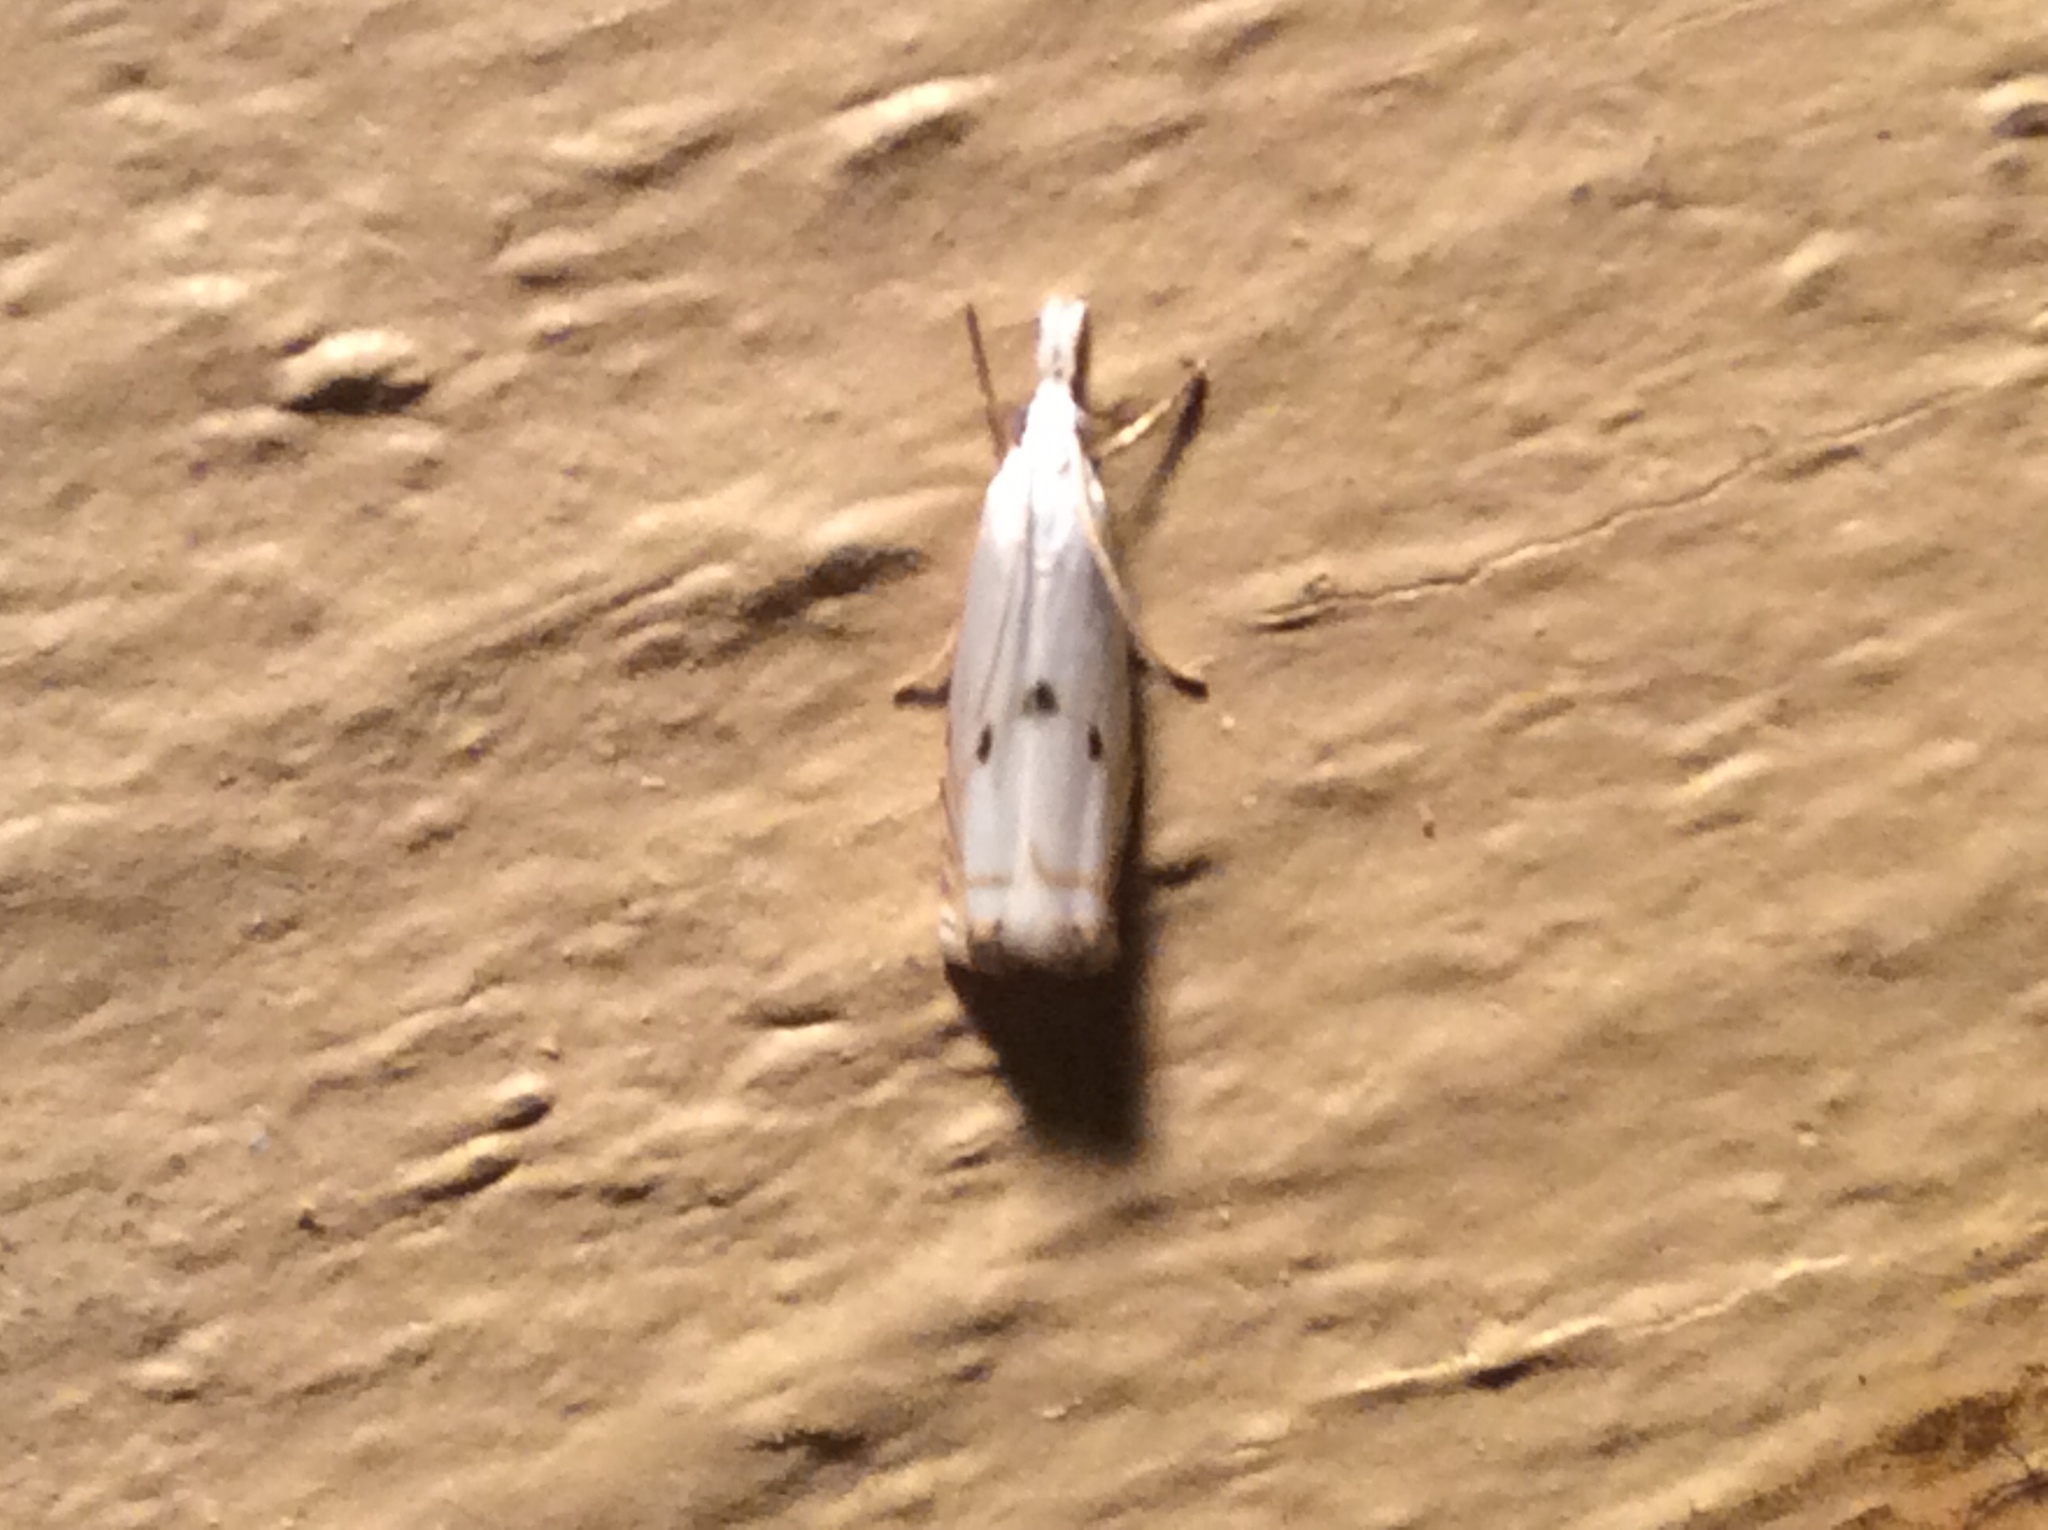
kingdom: Animalia
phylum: Arthropoda
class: Insecta
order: Lepidoptera
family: Crambidae
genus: Microcrambus
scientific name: Microcrambus biguttellus
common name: Gold-stripe grass-veneer moth
